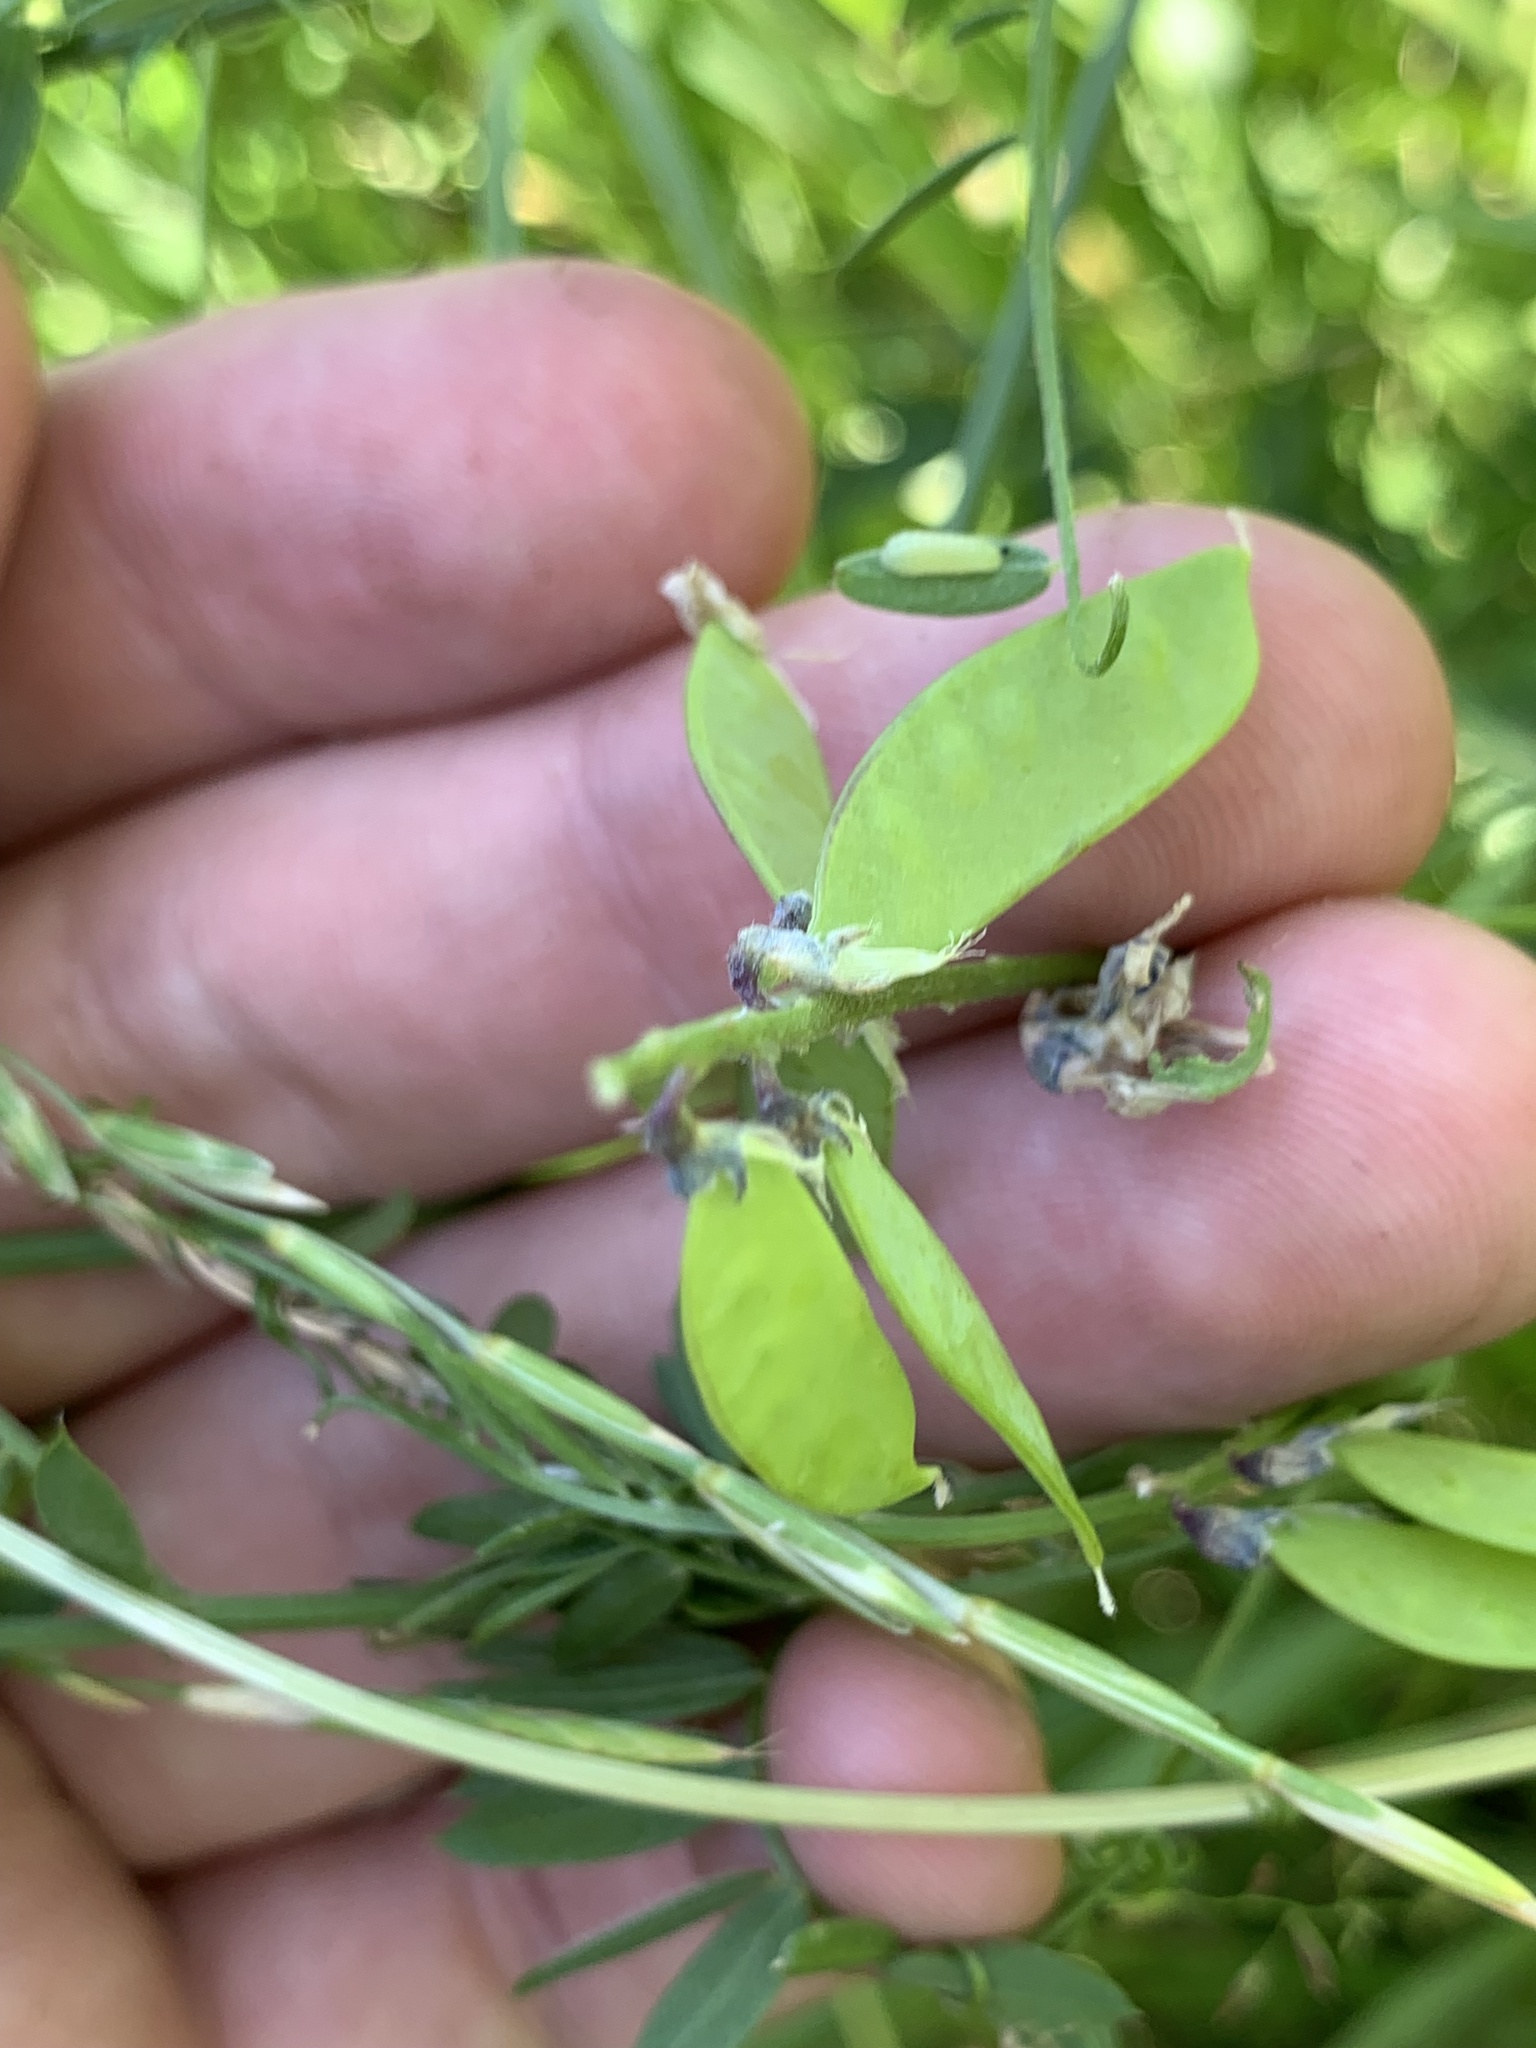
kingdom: Plantae
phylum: Tracheophyta
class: Magnoliopsida
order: Fabales
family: Fabaceae
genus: Vicia
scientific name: Vicia cracca
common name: Bird vetch
